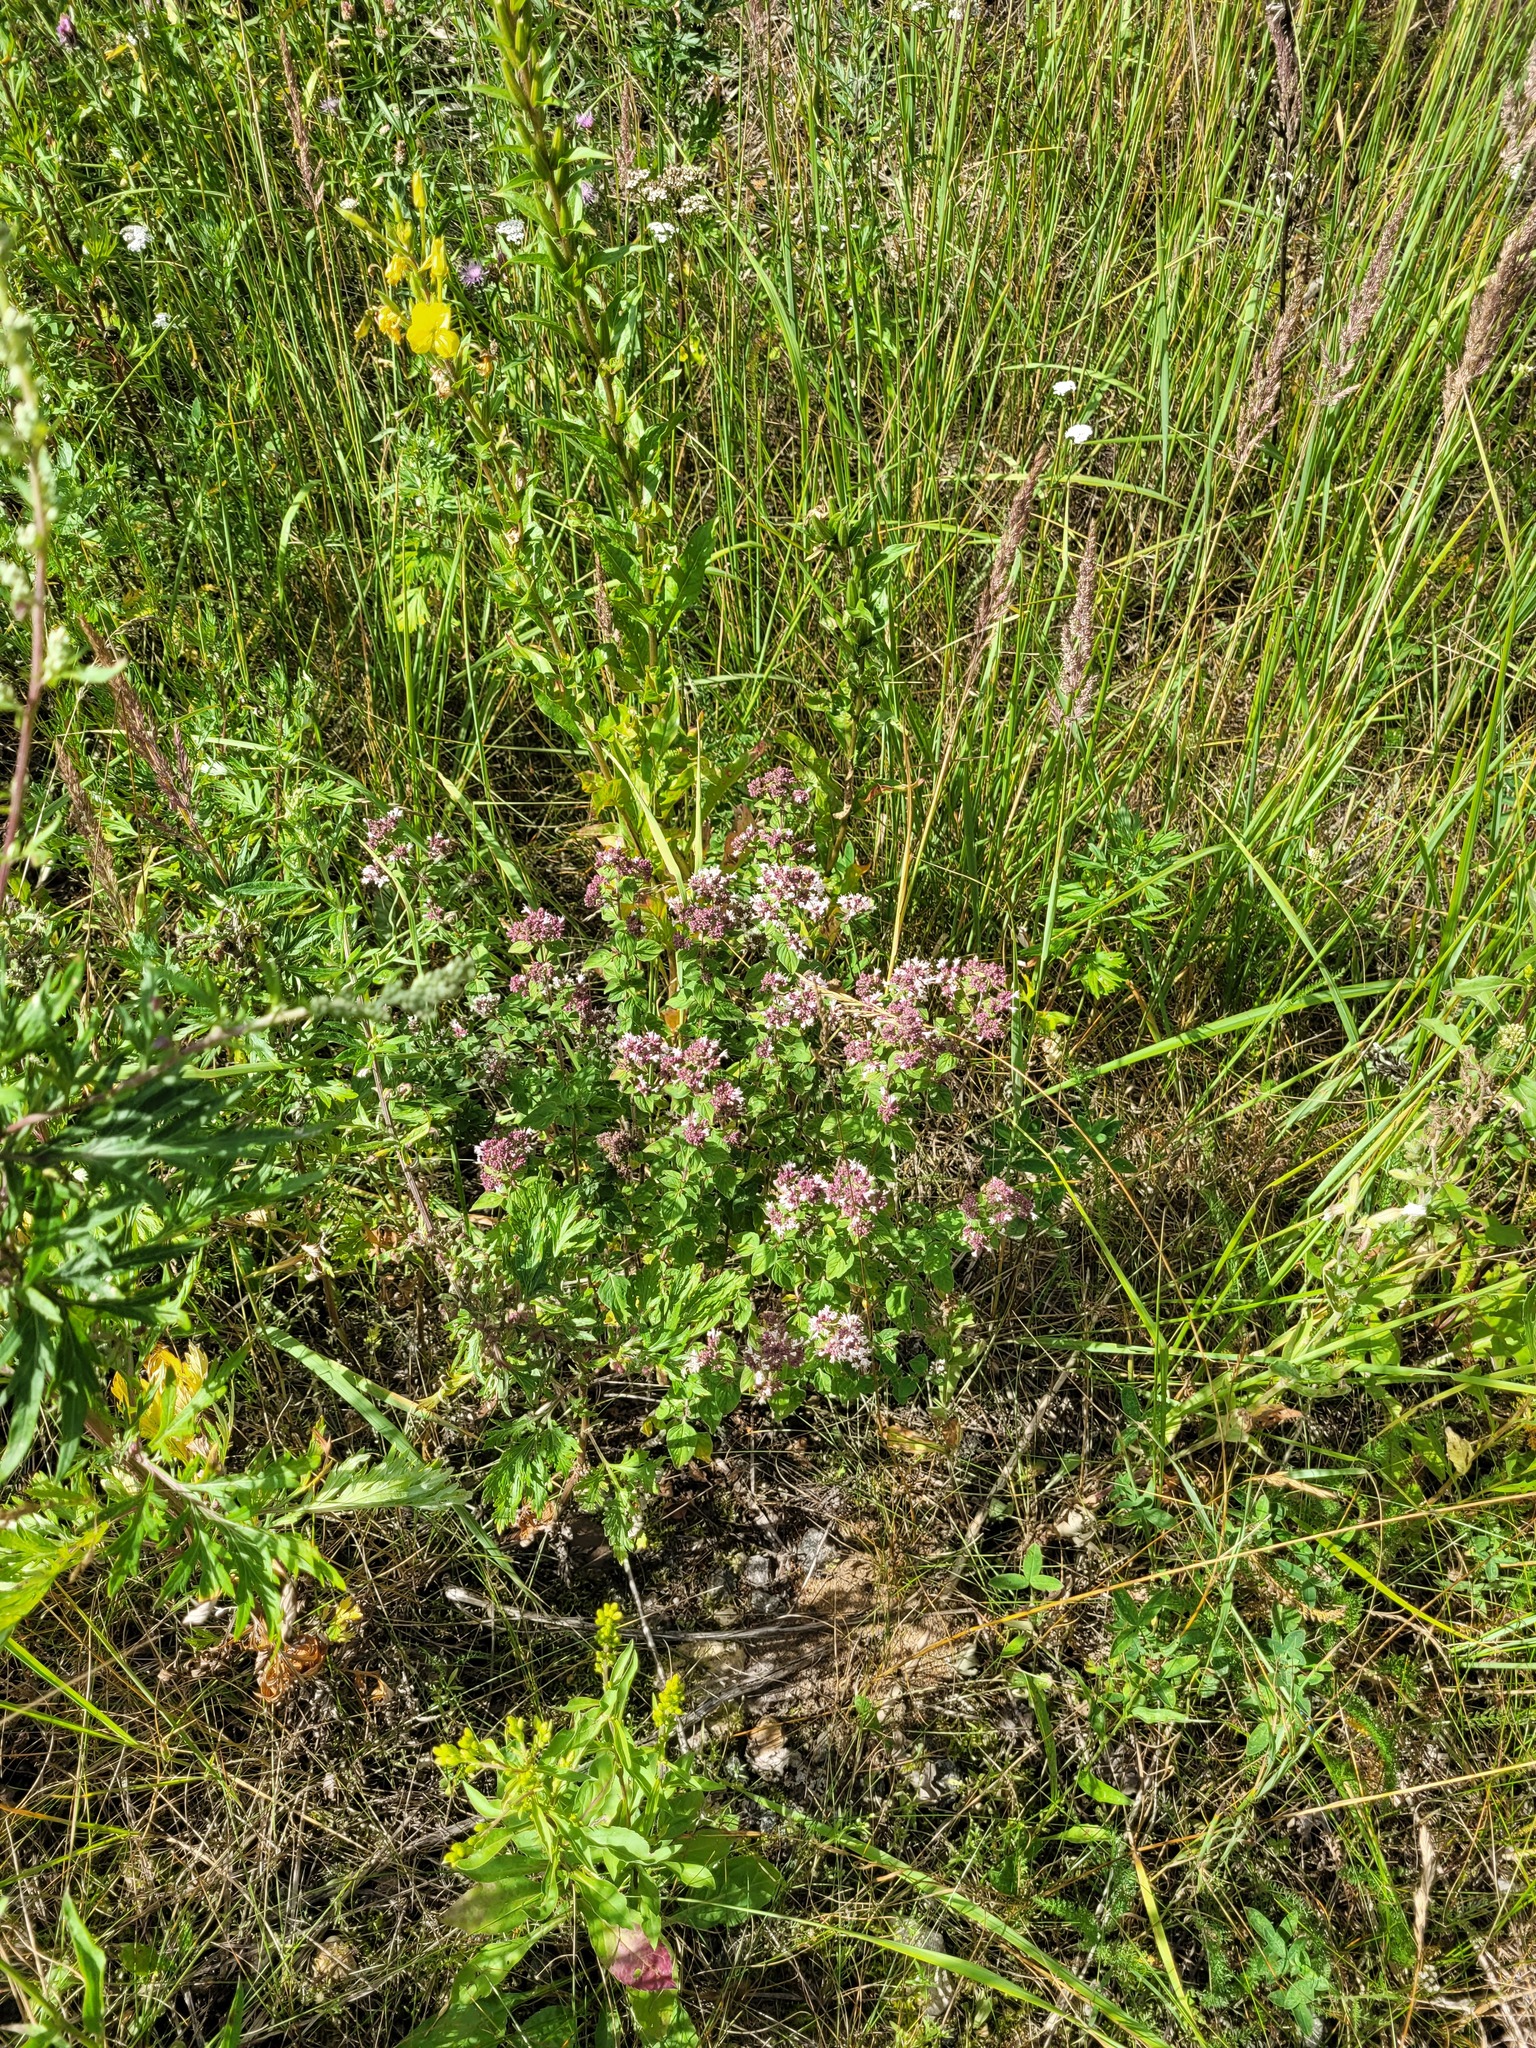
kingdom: Plantae
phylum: Tracheophyta
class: Magnoliopsida
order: Lamiales
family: Lamiaceae
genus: Origanum
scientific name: Origanum vulgare
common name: Wild marjoram
